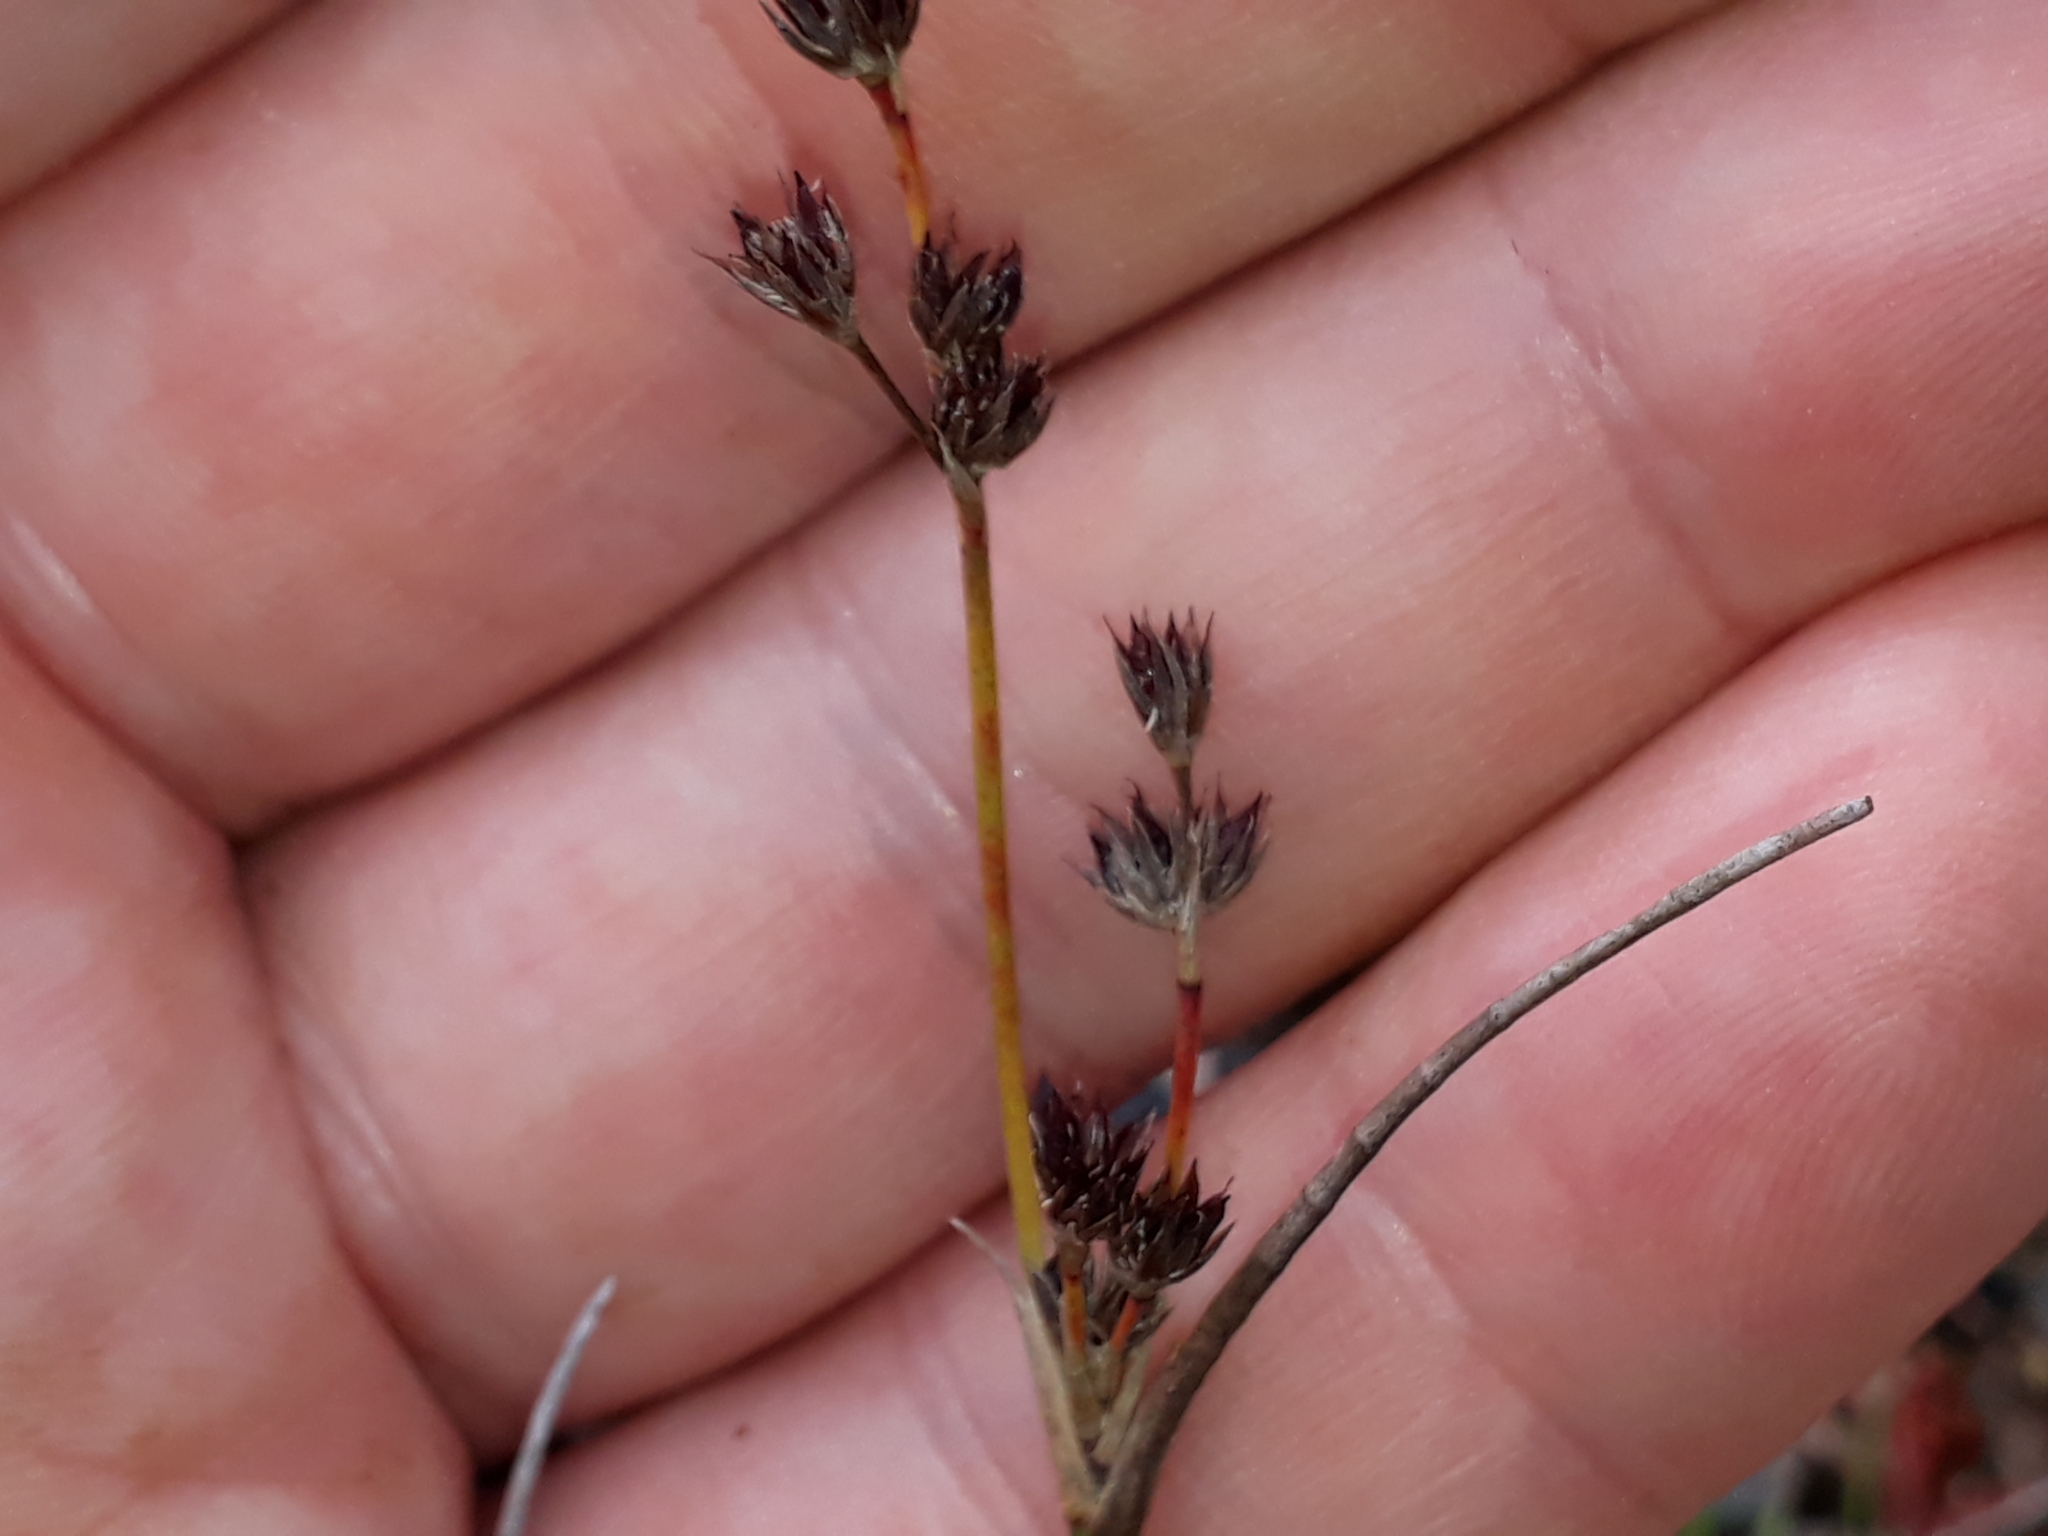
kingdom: Plantae
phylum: Tracheophyta
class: Liliopsida
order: Poales
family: Juncaceae
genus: Juncus
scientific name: Juncus articulatus
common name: Jointed rush
